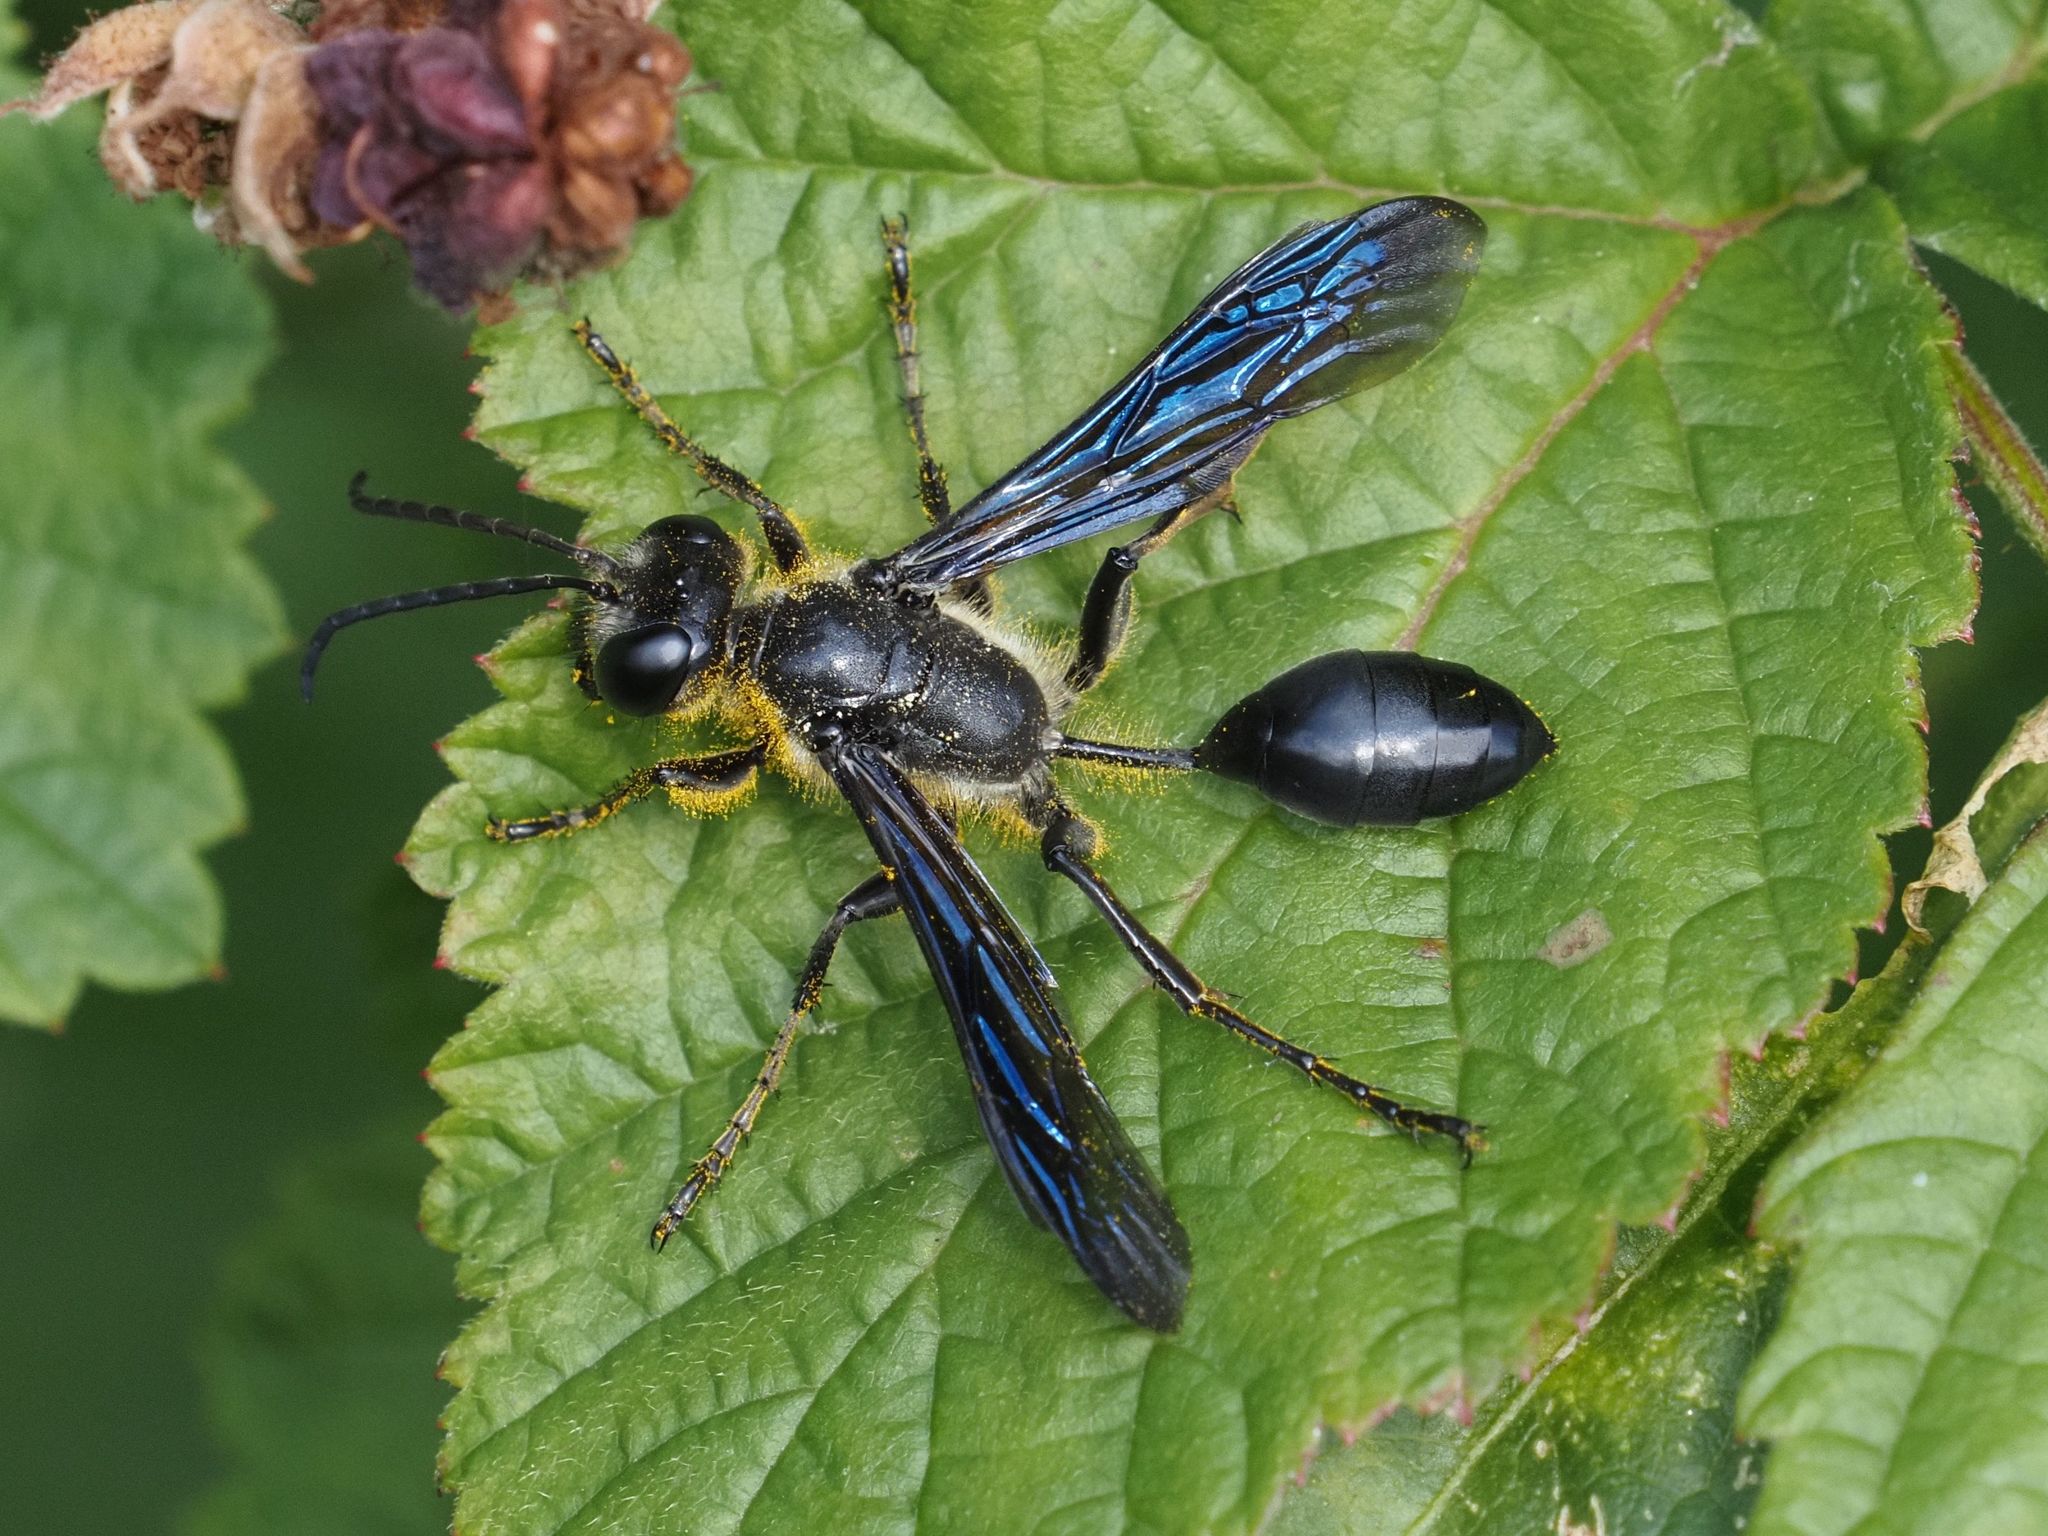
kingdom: Animalia
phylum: Arthropoda
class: Insecta
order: Hymenoptera
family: Sphecidae
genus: Isodontia
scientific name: Isodontia mexicana
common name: Mud dauber
